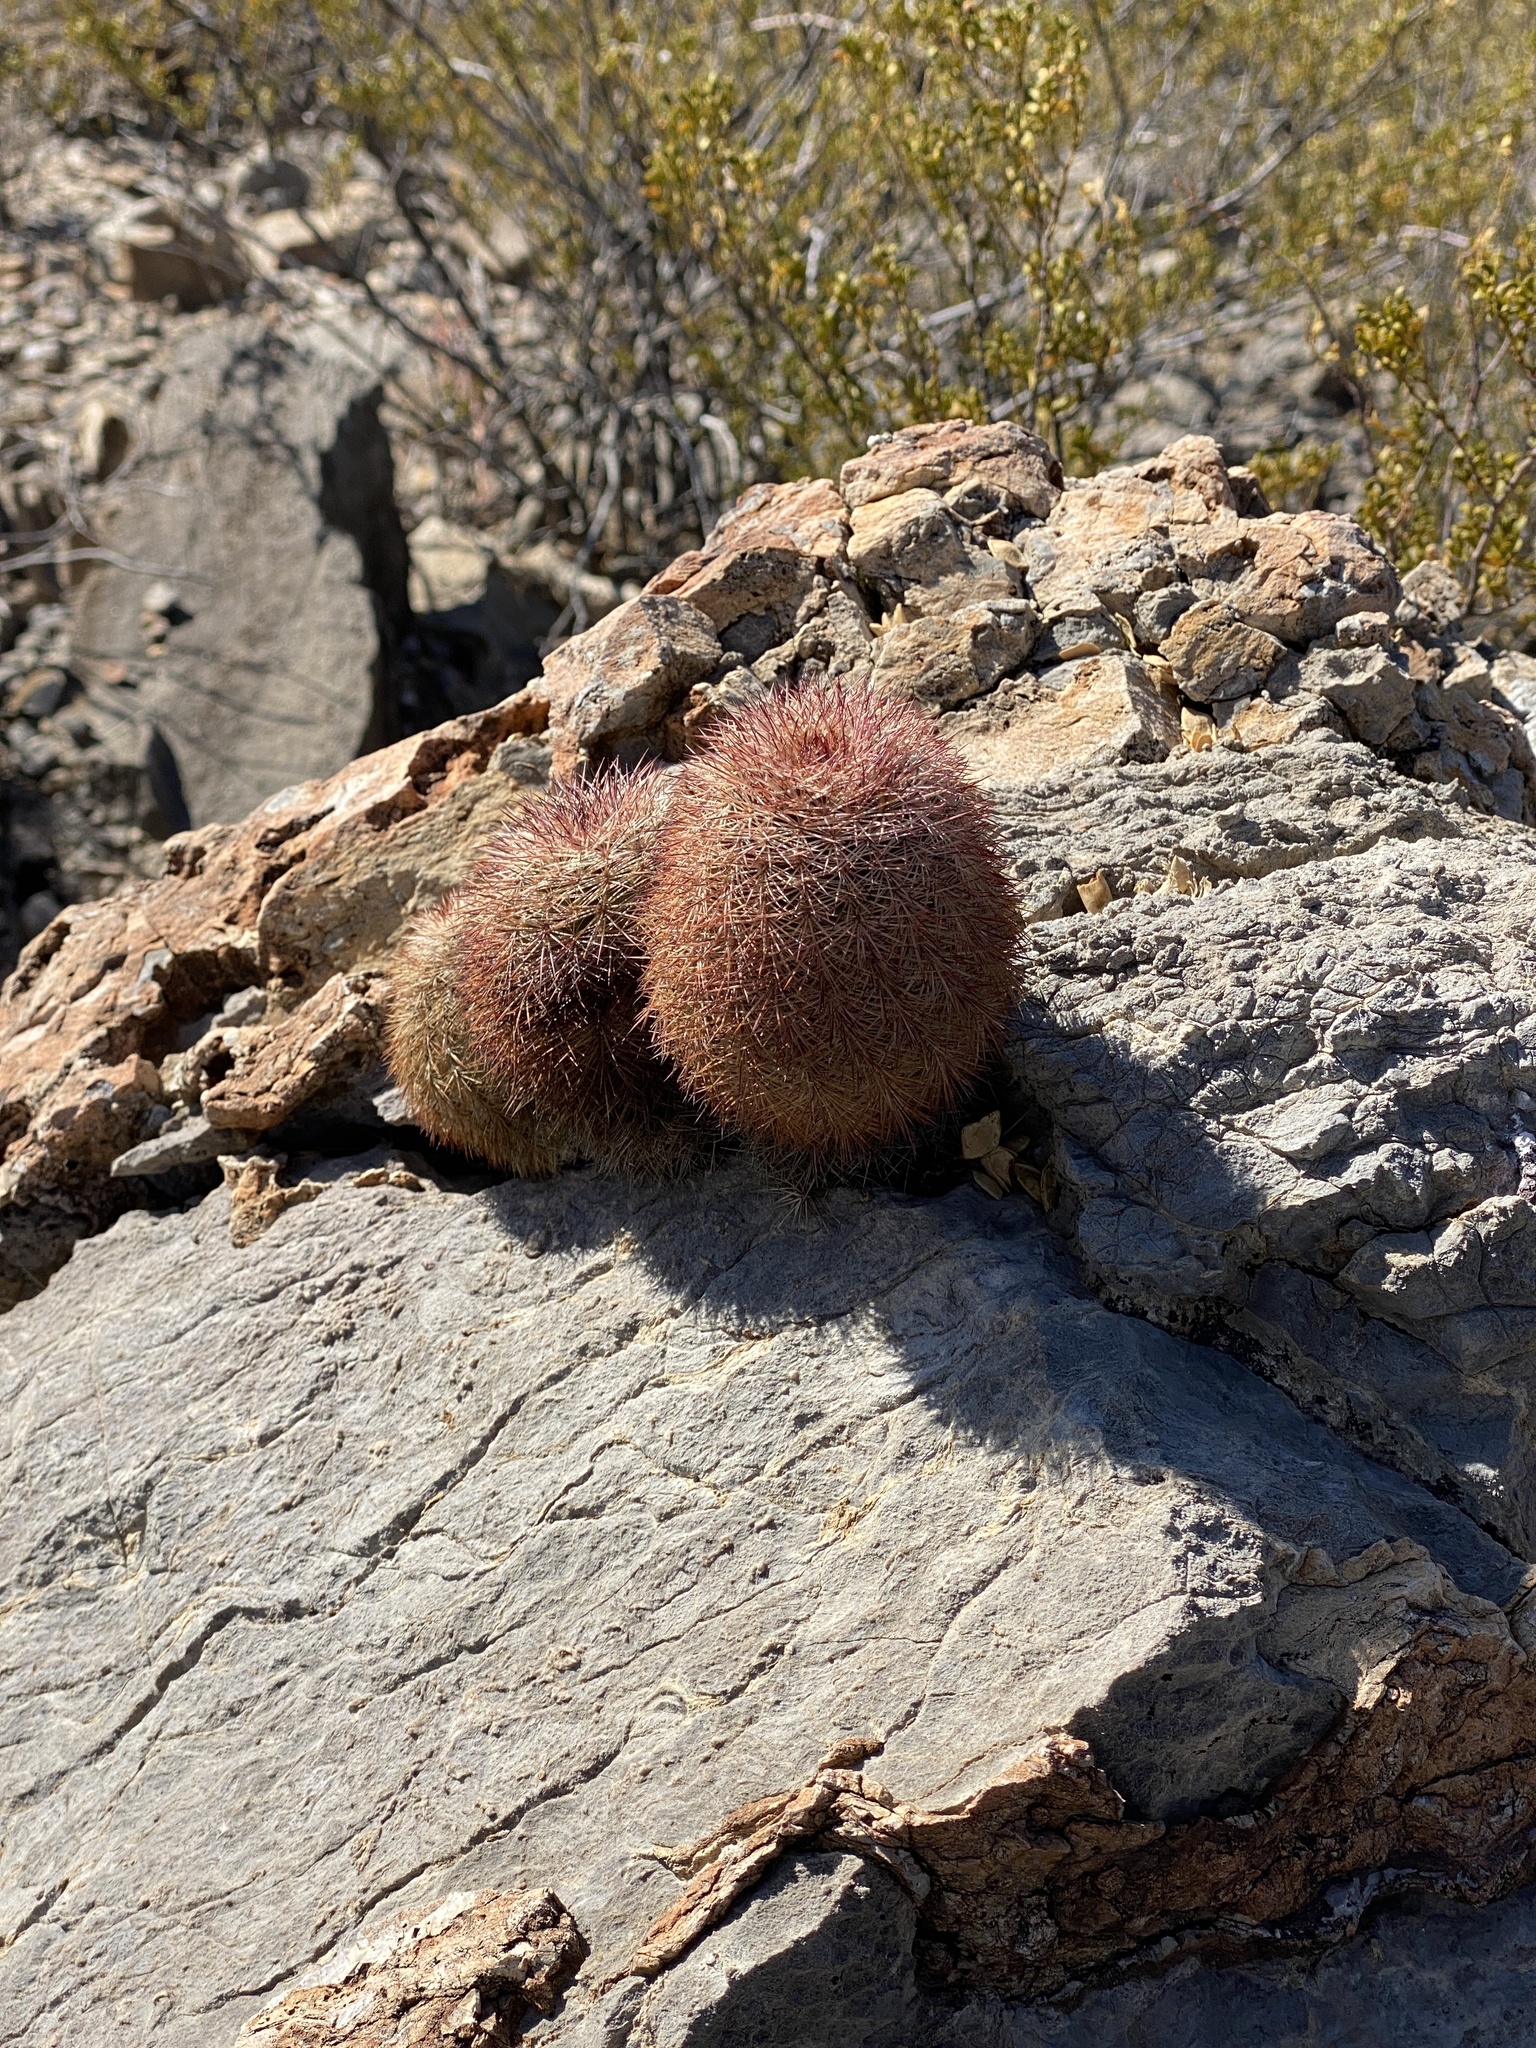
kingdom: Plantae
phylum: Tracheophyta
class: Magnoliopsida
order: Caryophyllales
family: Cactaceae
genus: Echinocereus
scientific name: Echinocereus dasyacanthus
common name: Spiny hedgehog cactus
